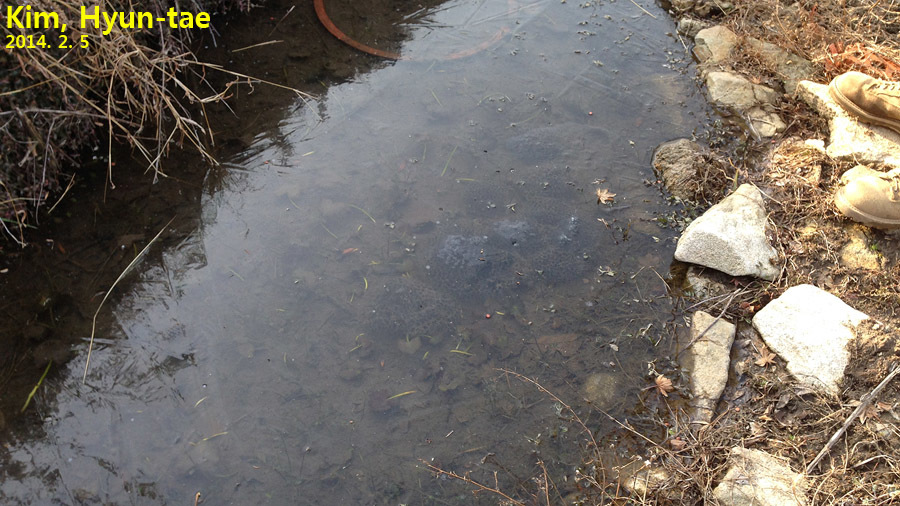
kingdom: Animalia
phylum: Chordata
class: Amphibia
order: Anura
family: Ranidae
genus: Rana
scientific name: Rana uenoi
